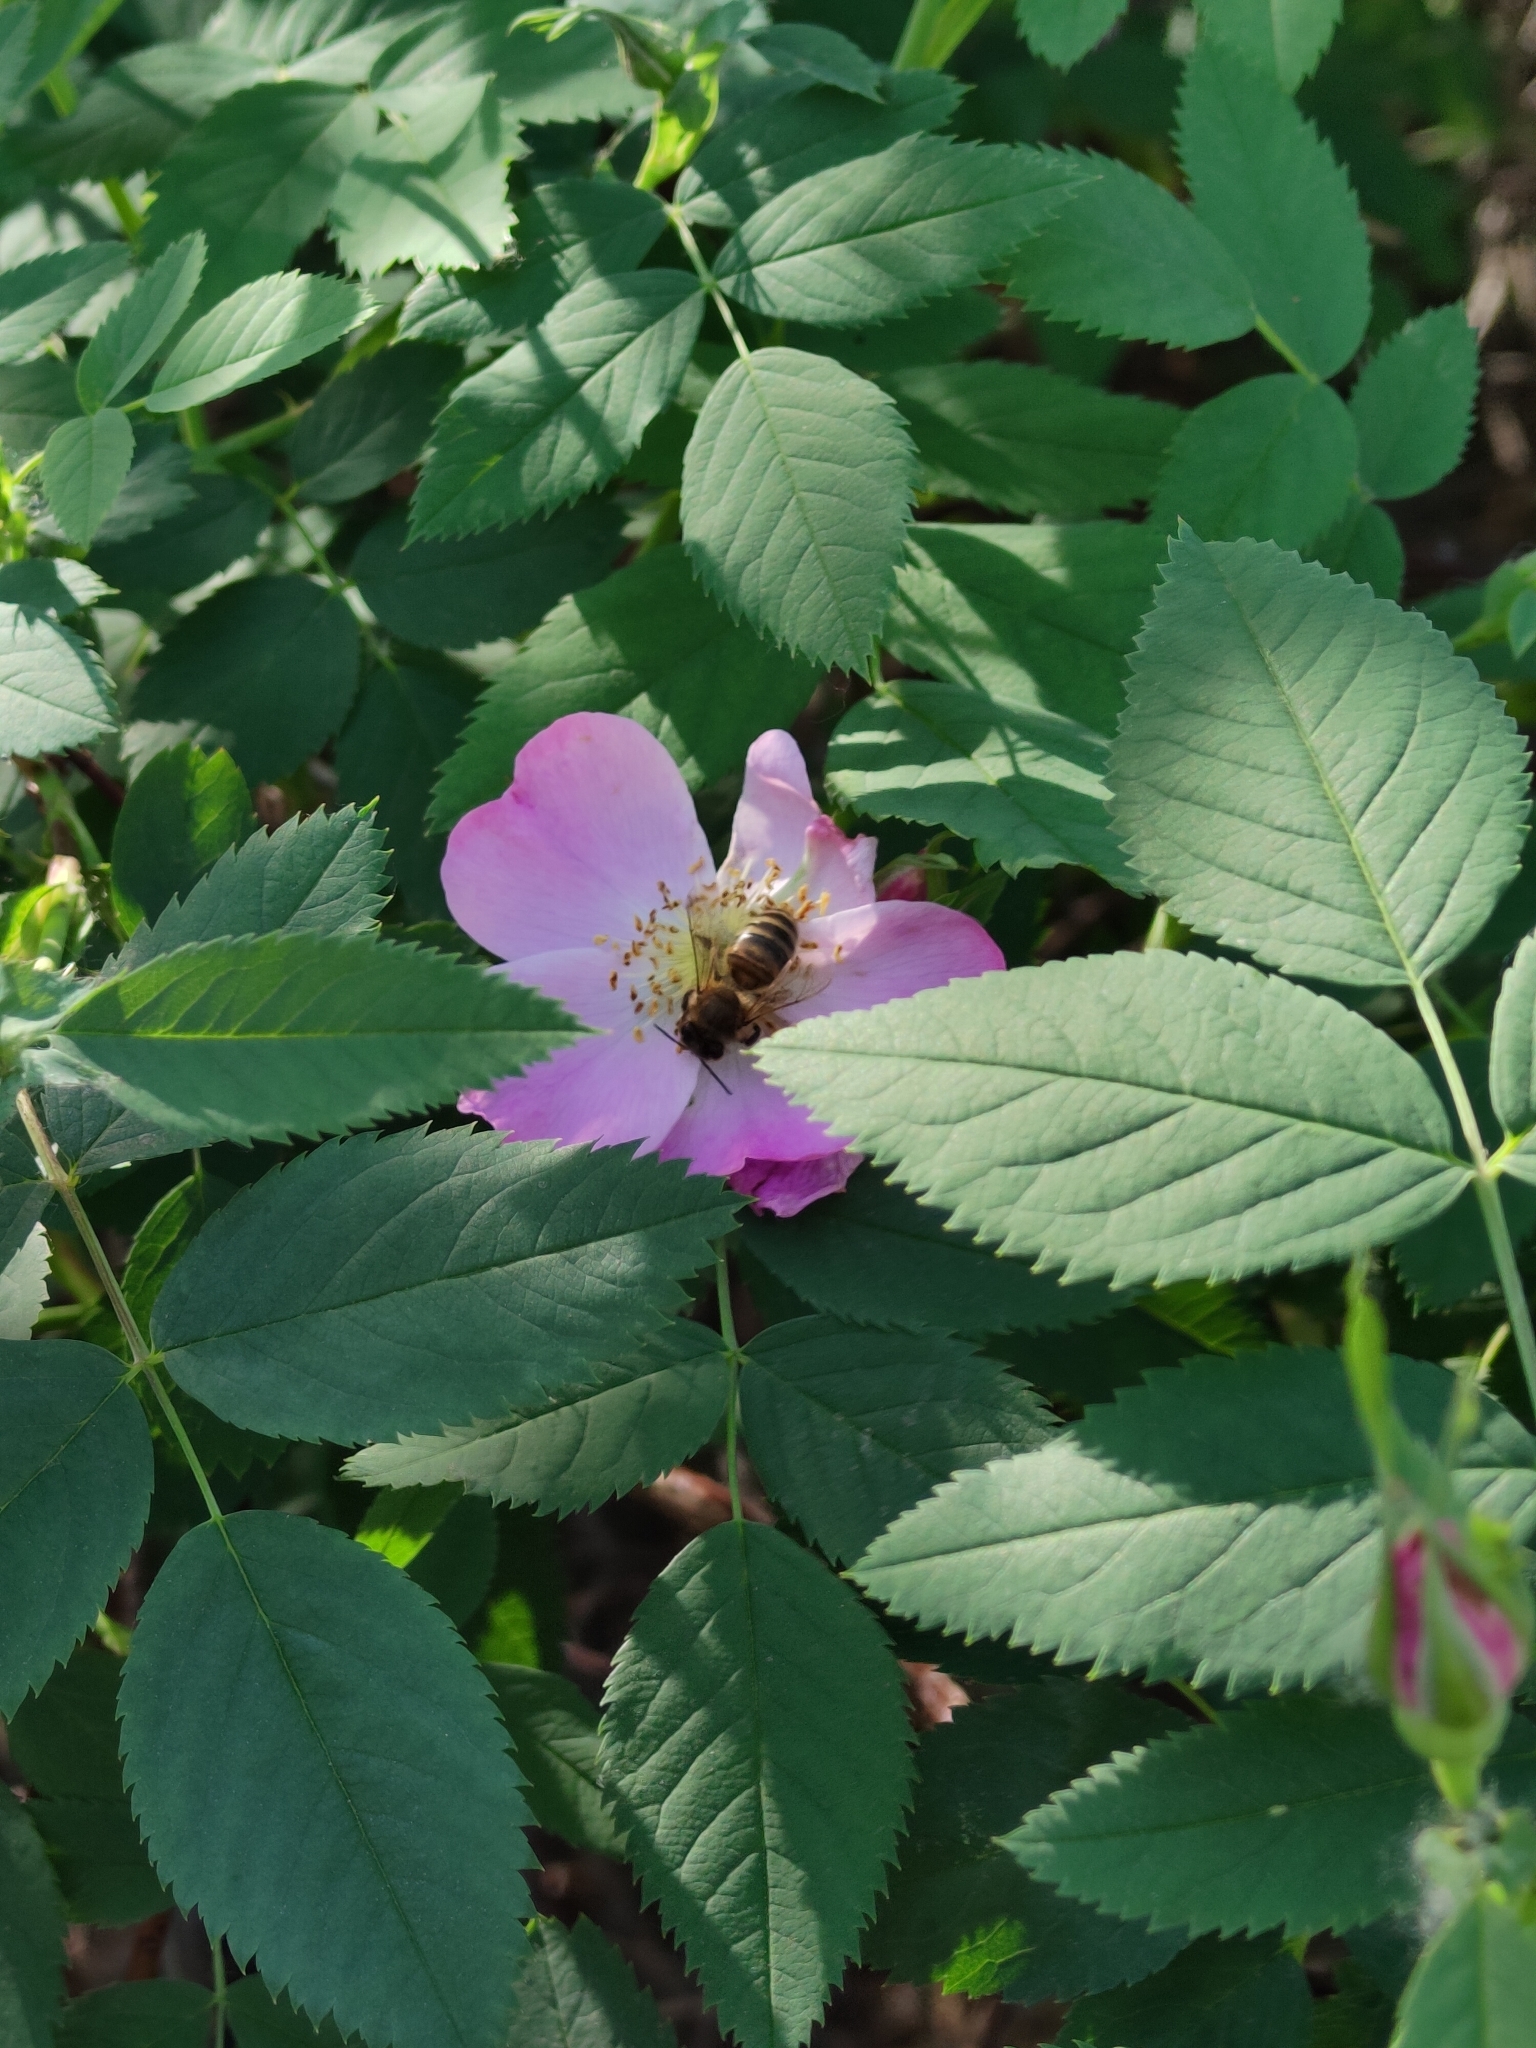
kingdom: Animalia
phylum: Arthropoda
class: Insecta
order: Hymenoptera
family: Apidae
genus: Apis
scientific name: Apis mellifera
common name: Honey bee
